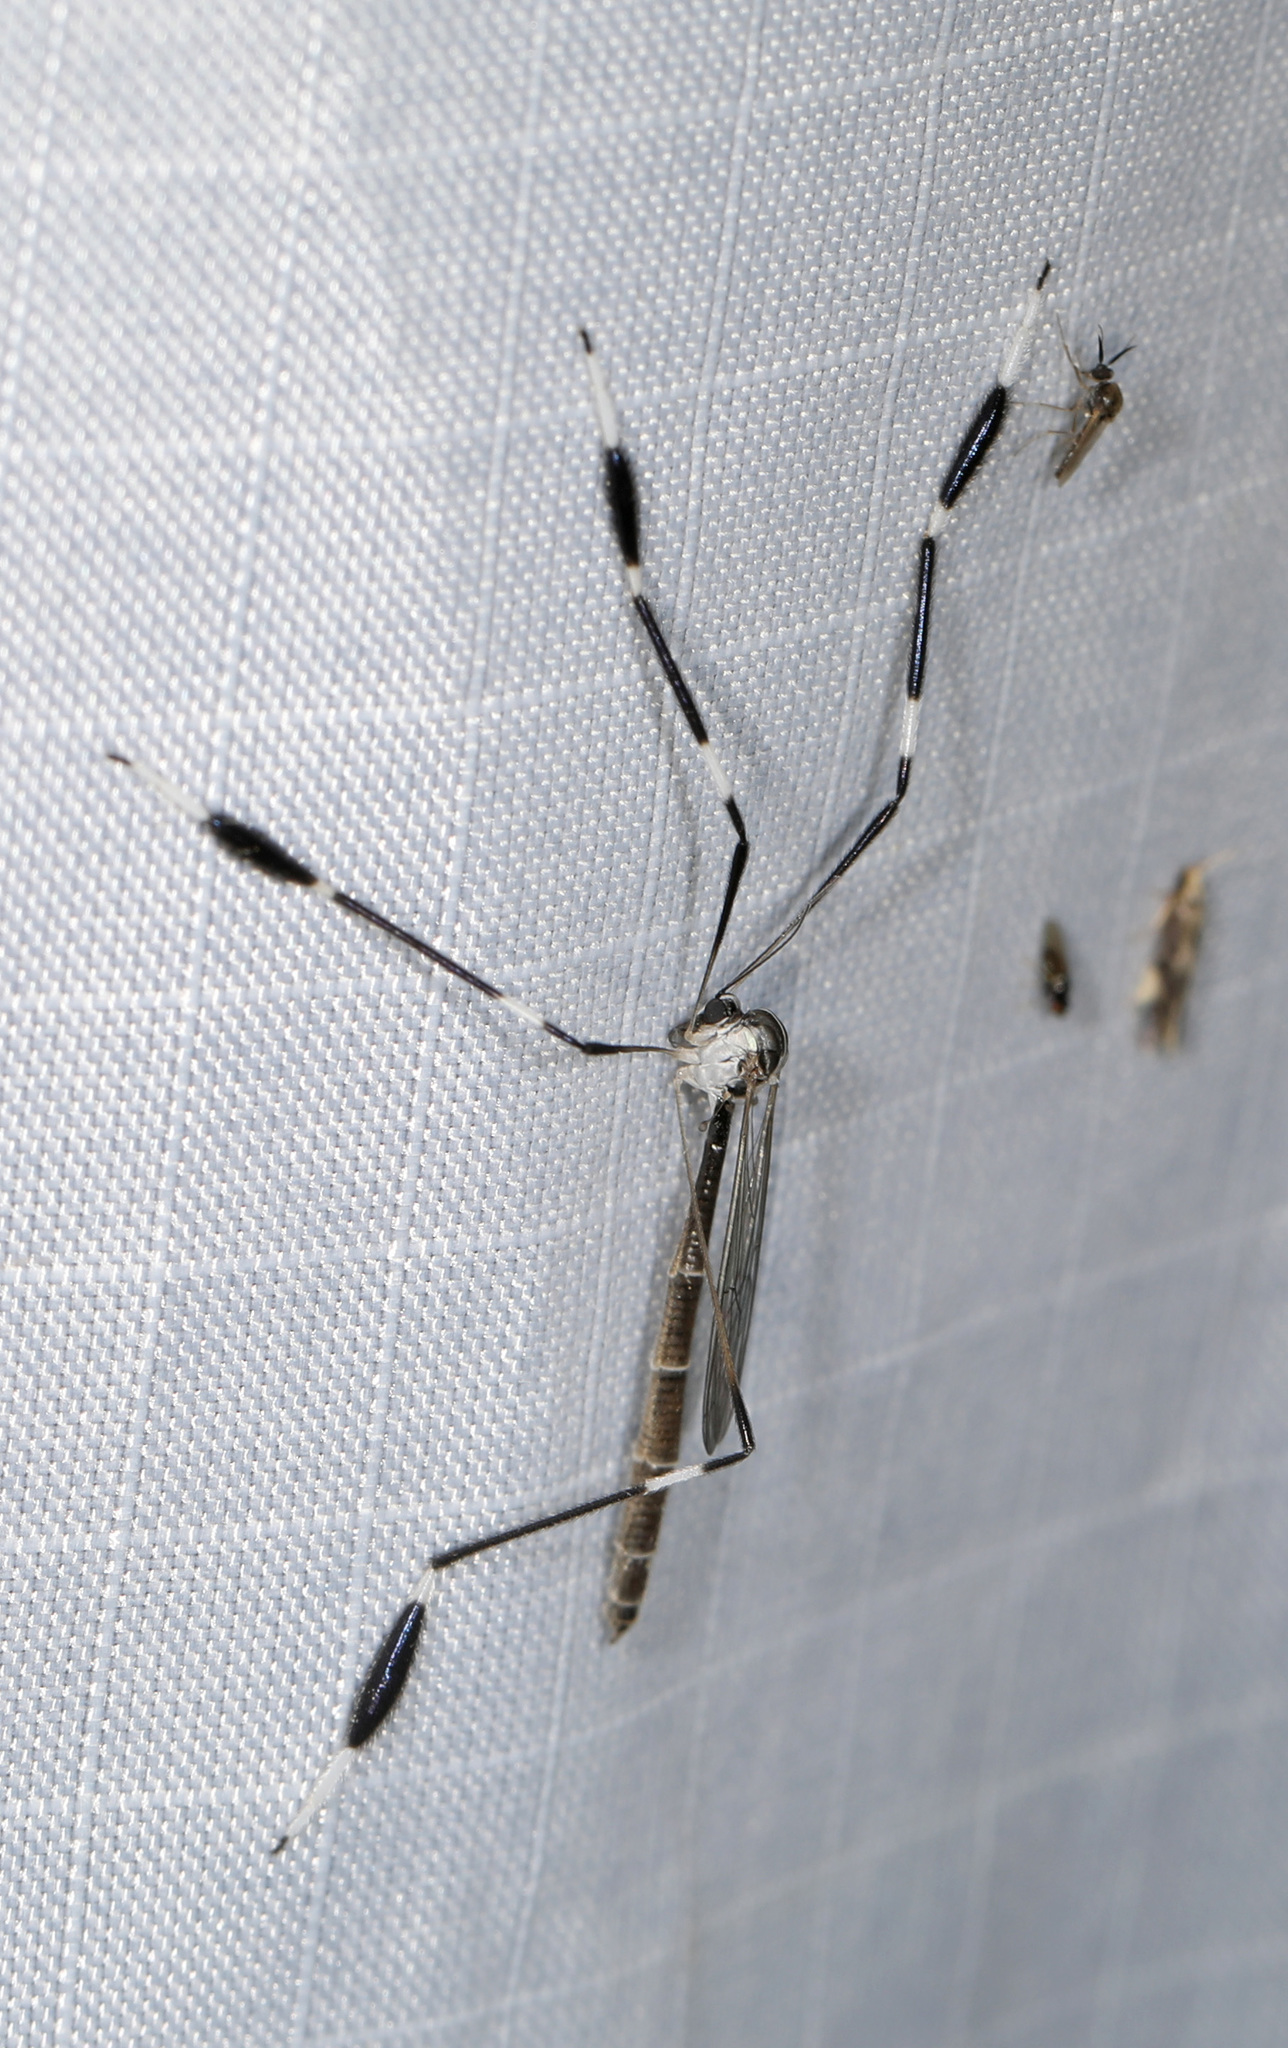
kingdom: Animalia
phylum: Arthropoda
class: Insecta
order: Diptera
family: Ptychopteridae
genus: Bittacomorpha
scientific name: Bittacomorpha clavipes
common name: Eastern phantom crane fly
